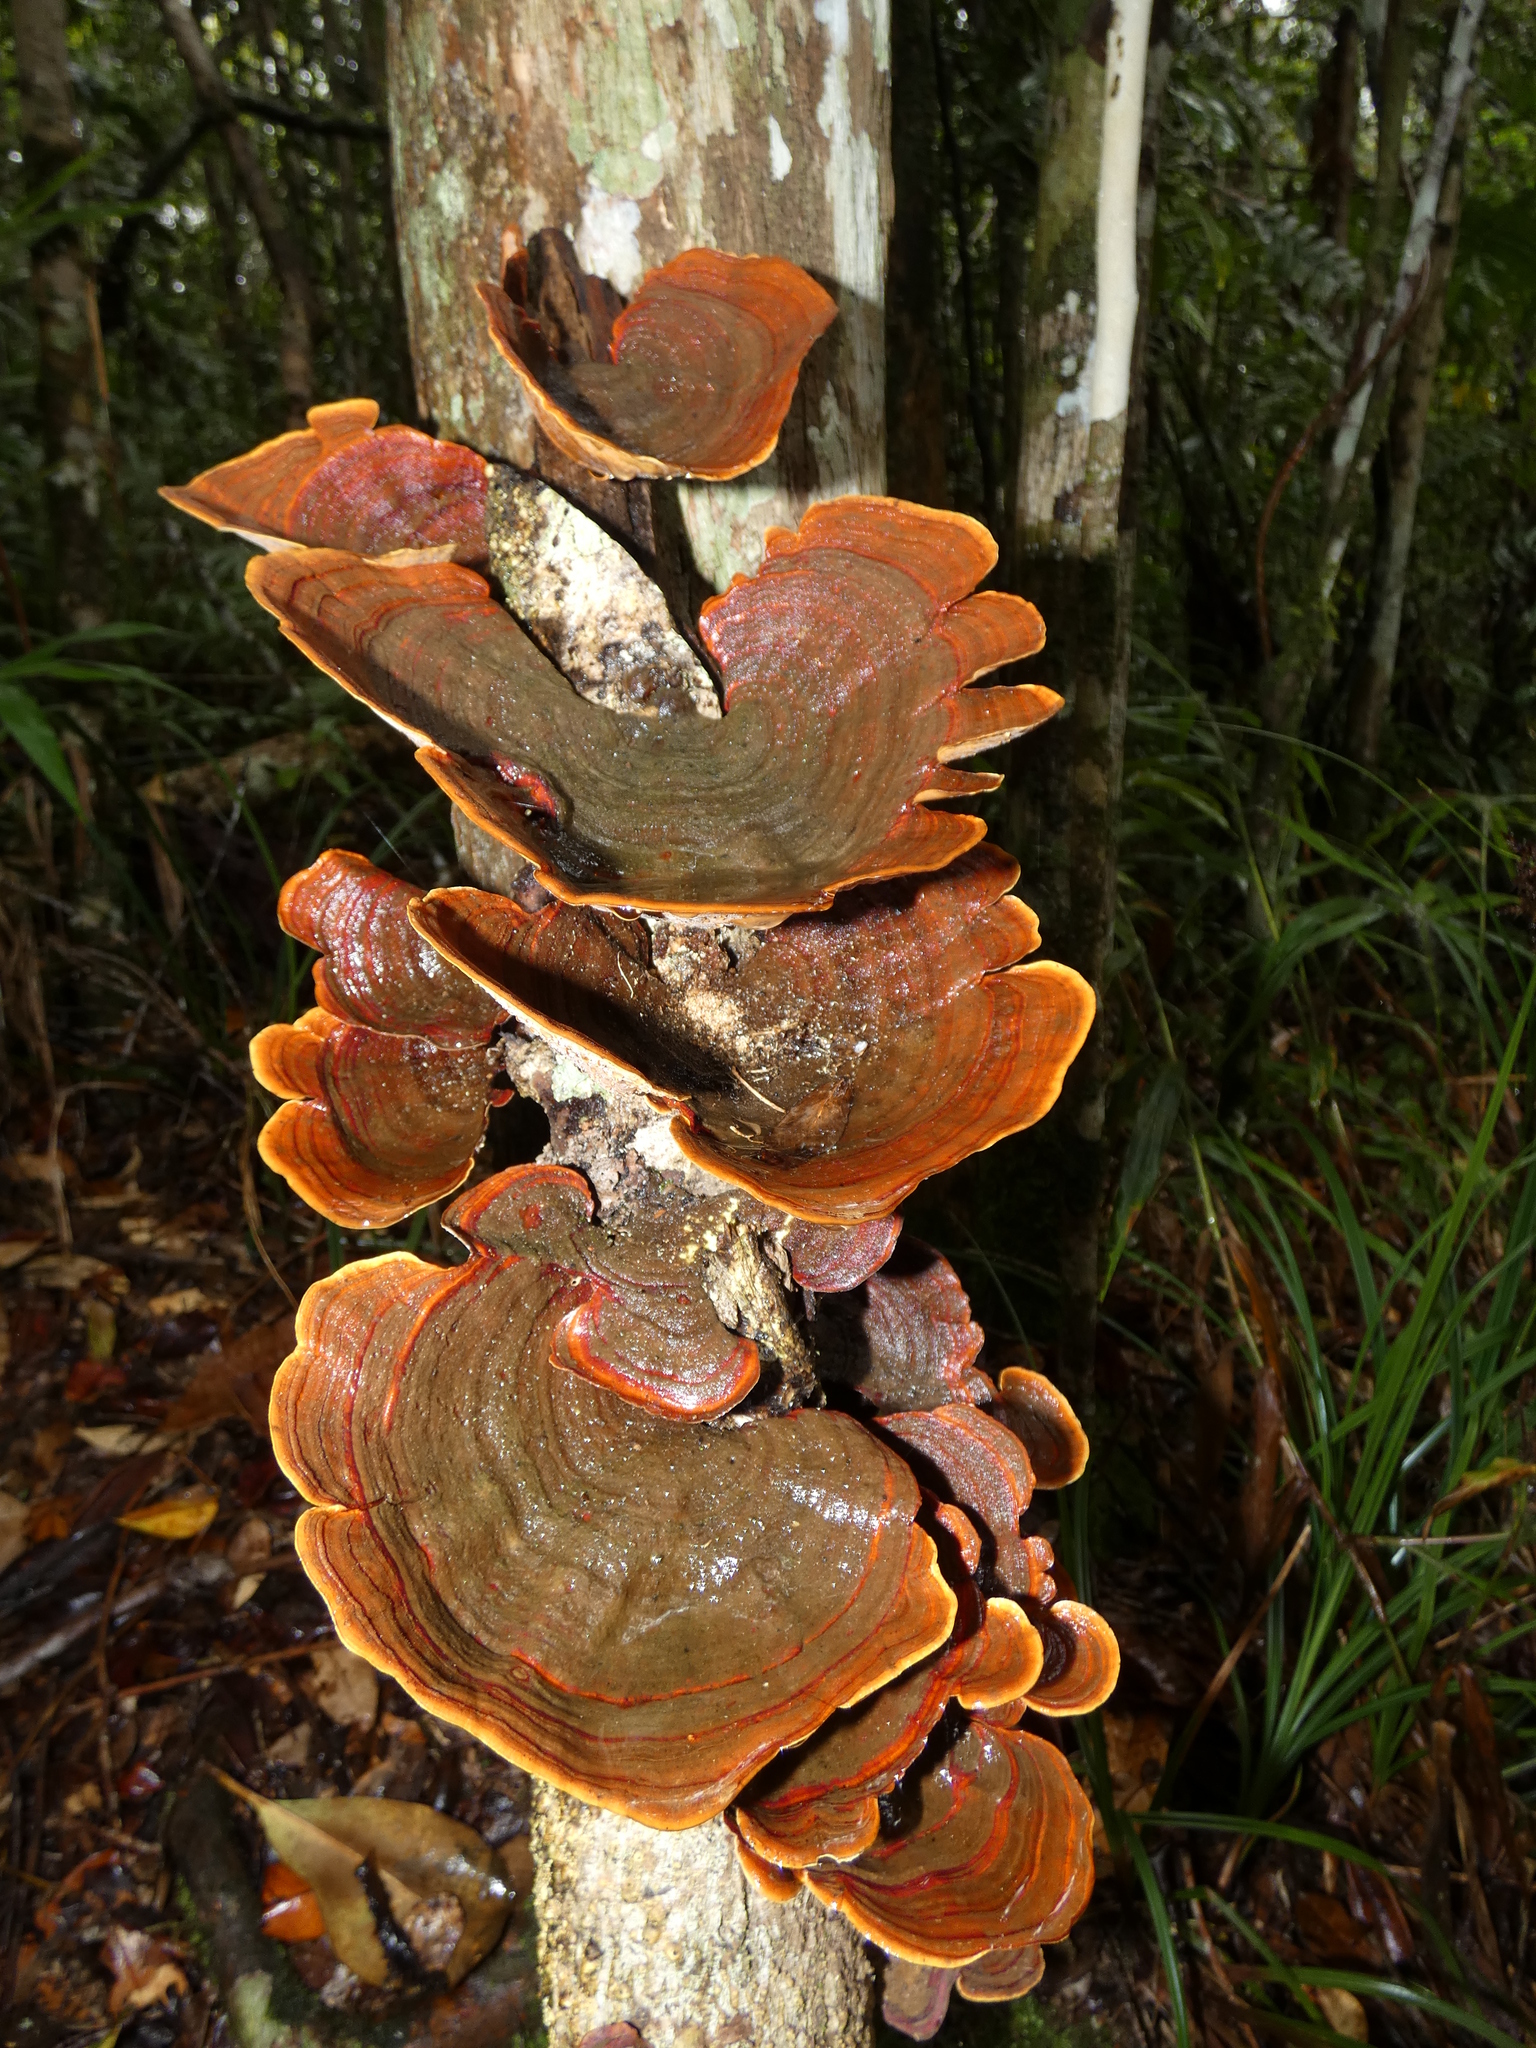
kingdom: Fungi
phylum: Basidiomycota
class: Agaricomycetes
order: Russulales
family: Stereaceae
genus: Stereum
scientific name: Stereum ostrea
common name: False turkeytail
